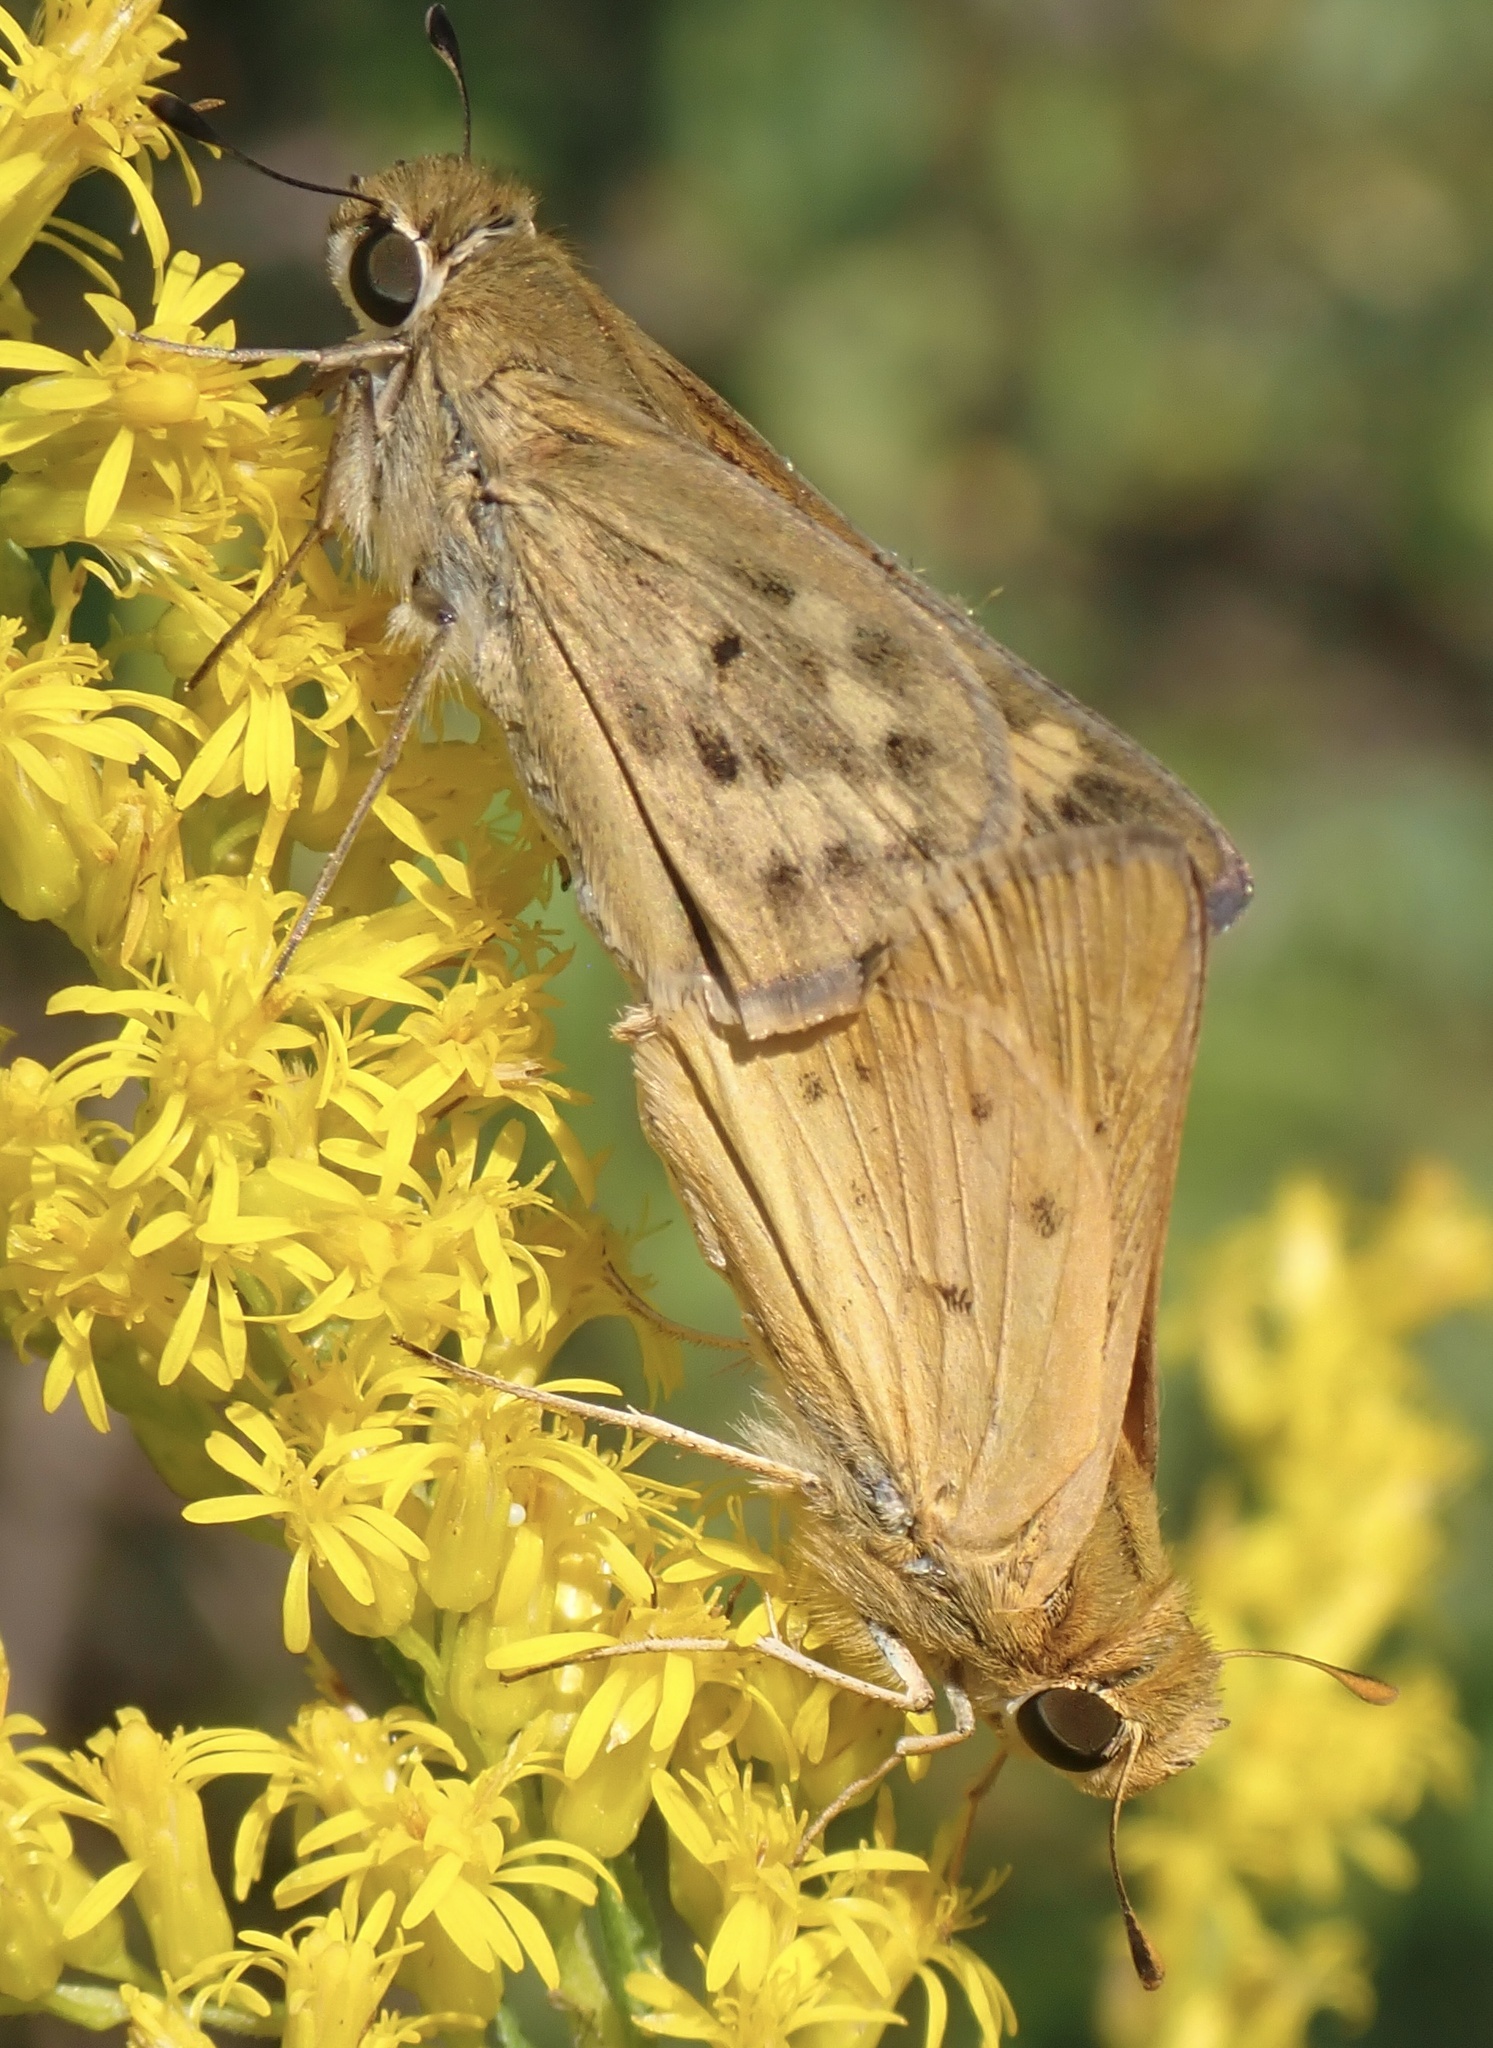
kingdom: Animalia
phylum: Arthropoda
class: Insecta
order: Lepidoptera
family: Hesperiidae
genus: Hylephila
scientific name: Hylephila phyleus
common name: Fiery skipper
